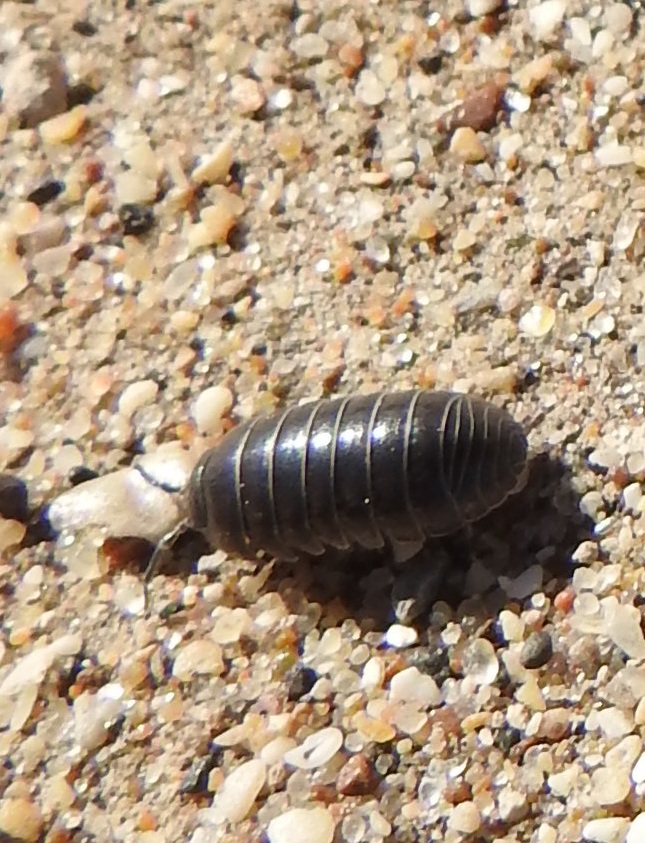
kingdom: Animalia
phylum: Arthropoda
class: Malacostraca
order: Isopoda
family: Armadillidiidae
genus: Armadillidium
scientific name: Armadillidium vulgare
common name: Common pill woodlouse
